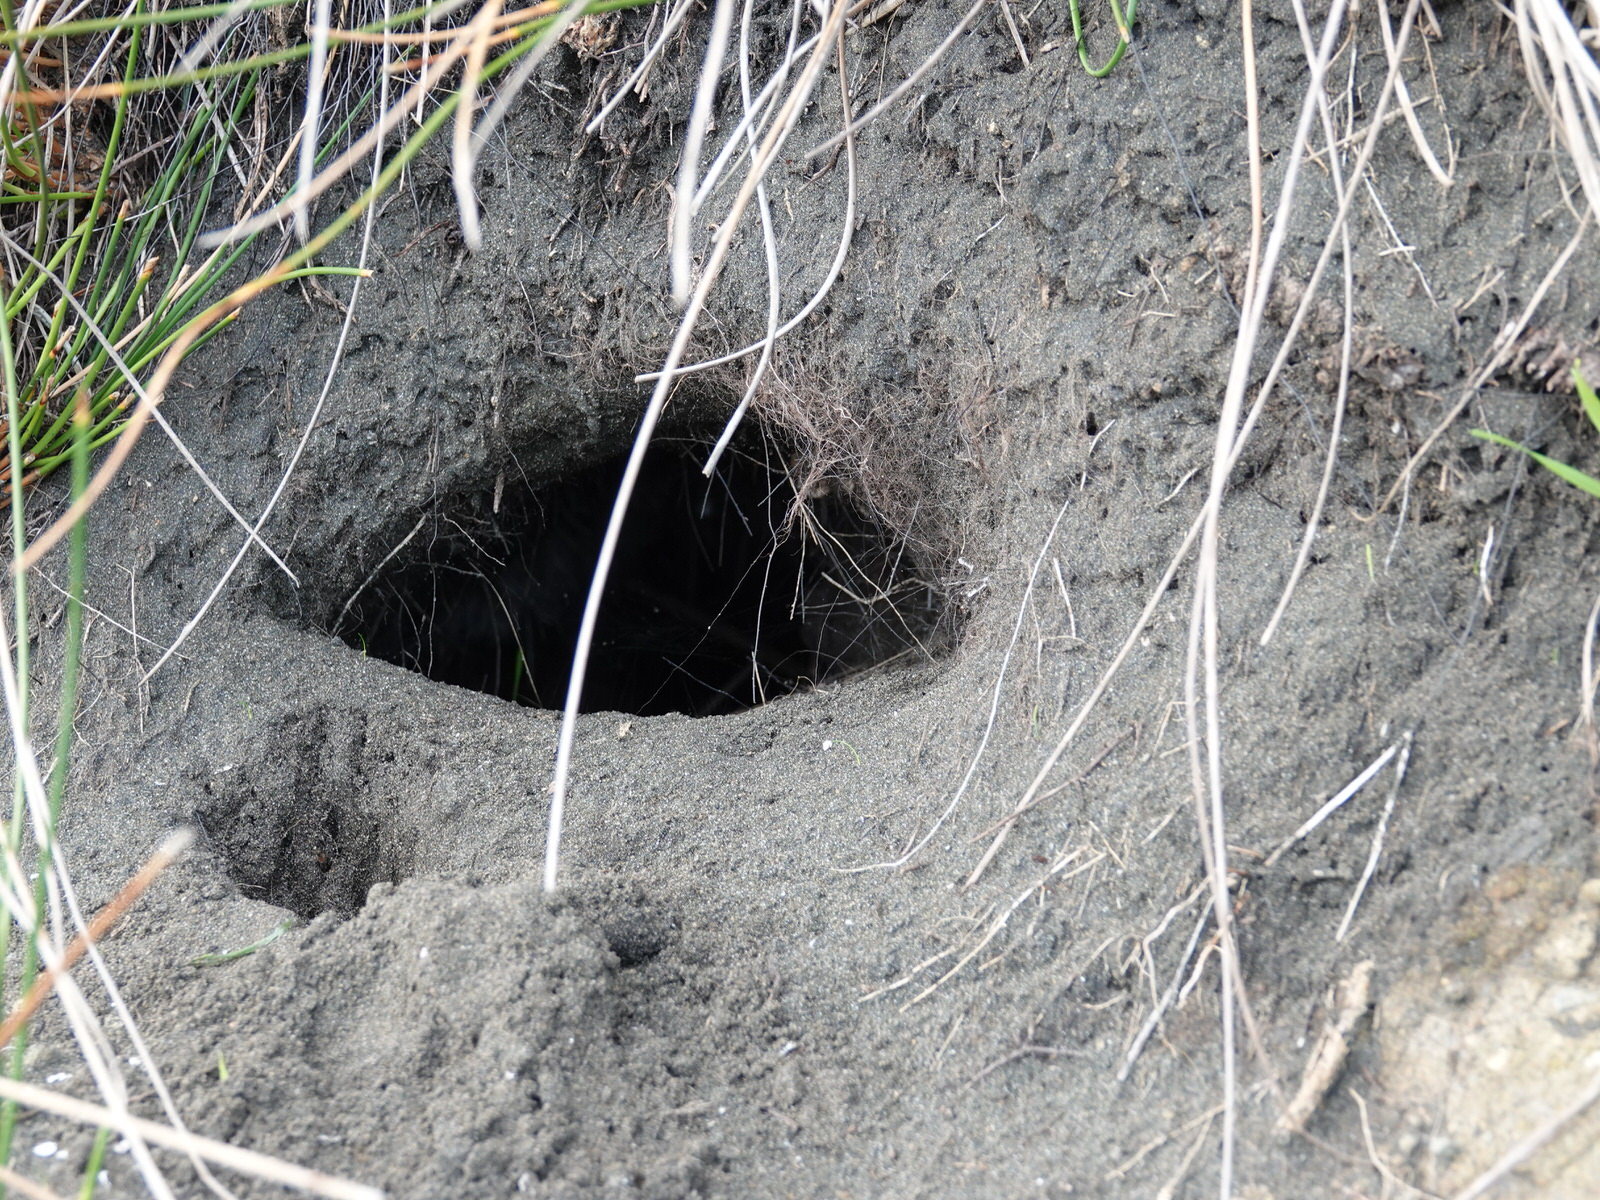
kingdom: Animalia
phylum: Chordata
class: Mammalia
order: Lagomorpha
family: Leporidae
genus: Oryctolagus
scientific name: Oryctolagus cuniculus
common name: European rabbit
